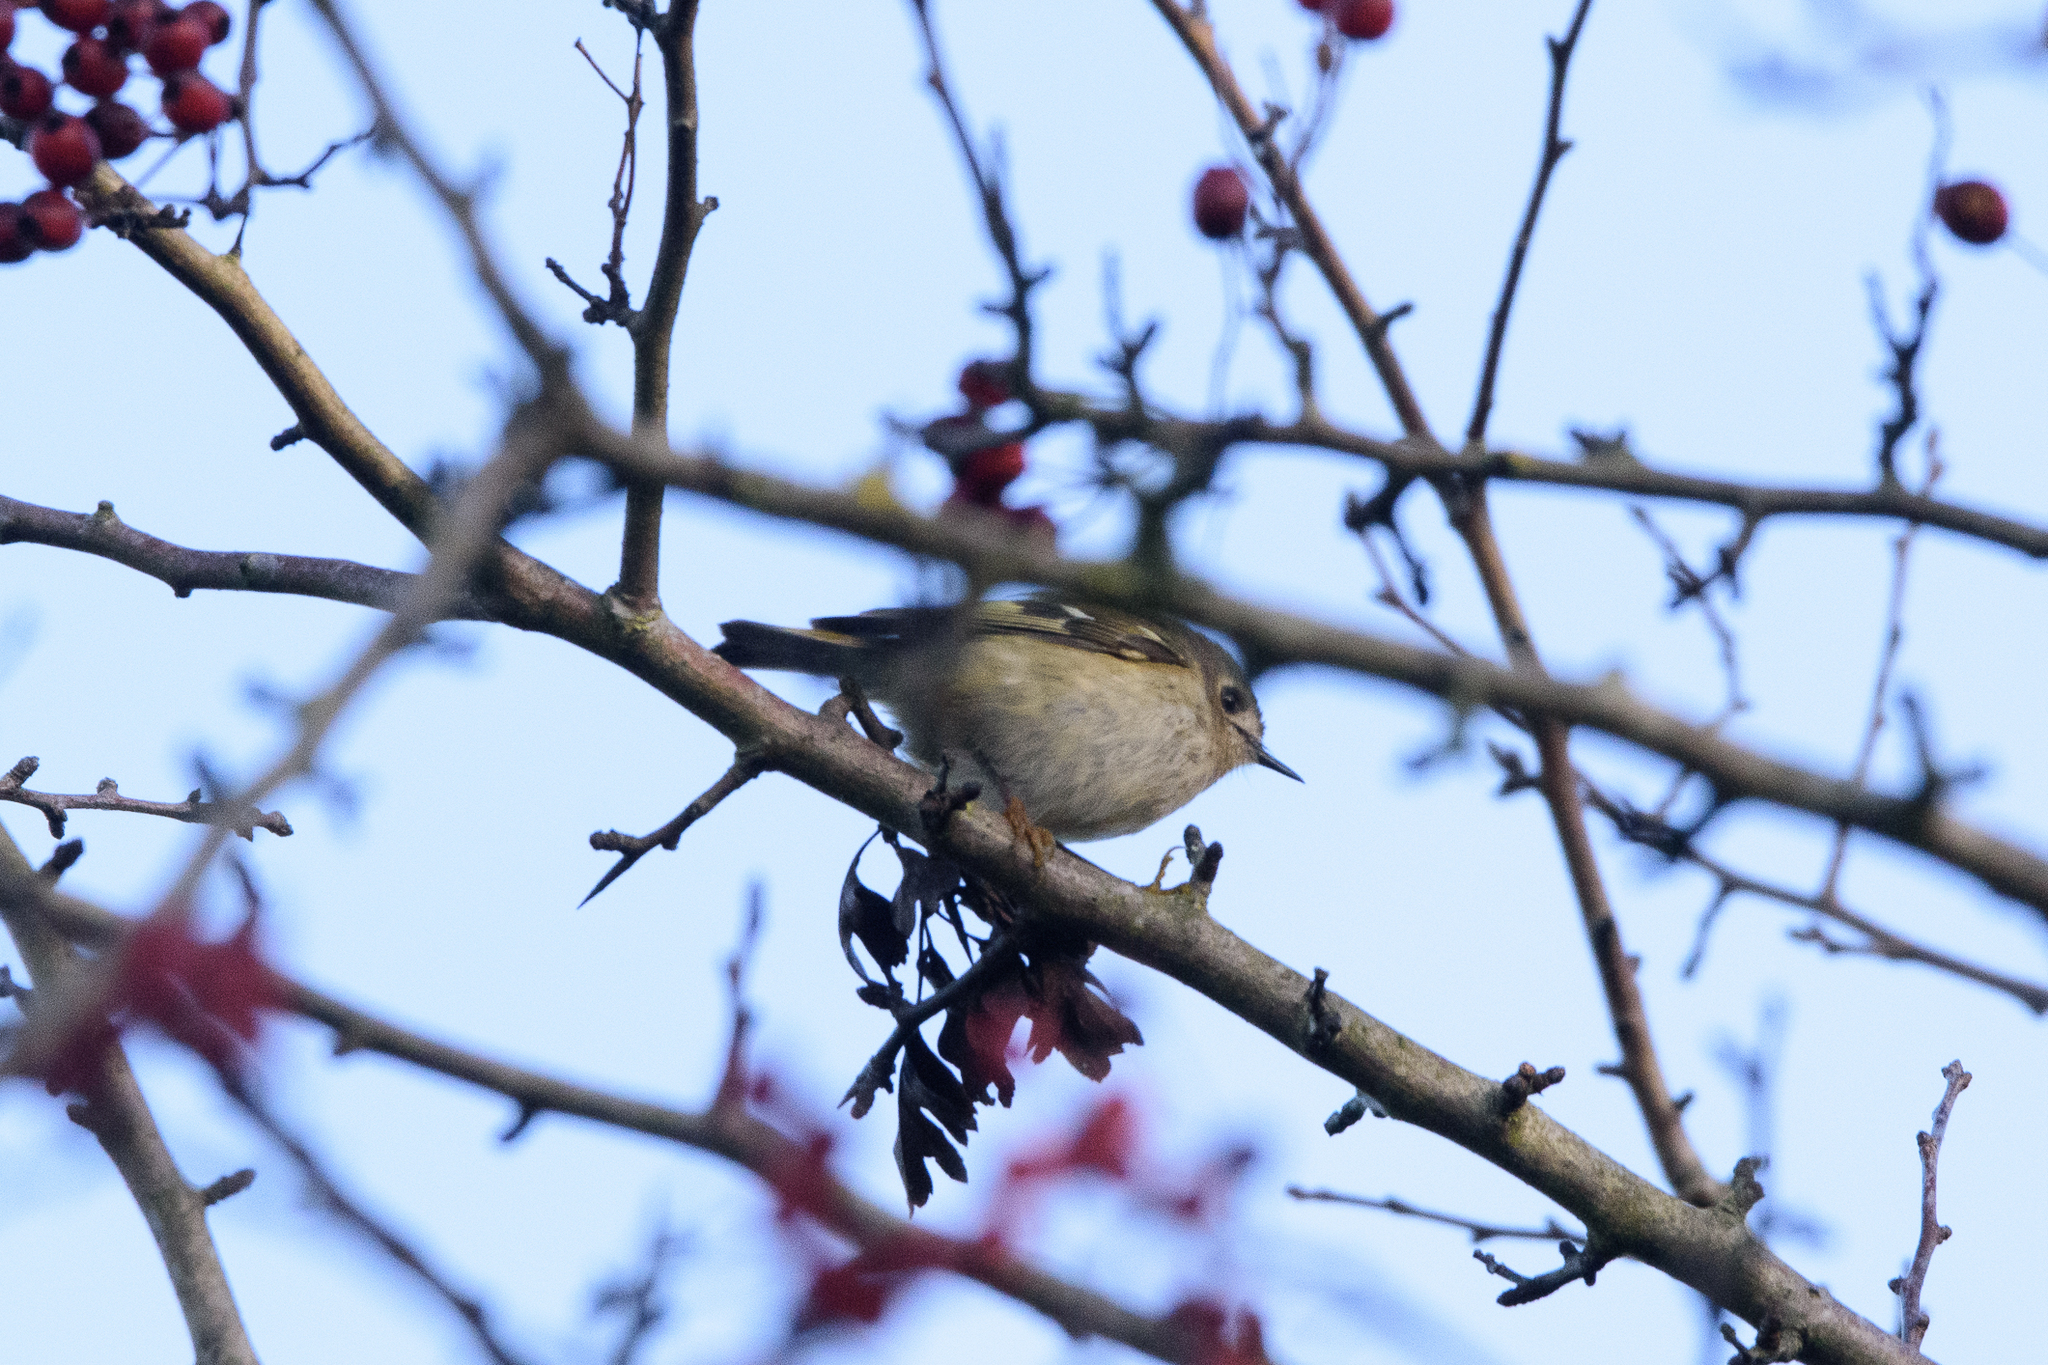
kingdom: Animalia
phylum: Chordata
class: Aves
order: Passeriformes
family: Regulidae
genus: Regulus
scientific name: Regulus regulus
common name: Goldcrest
